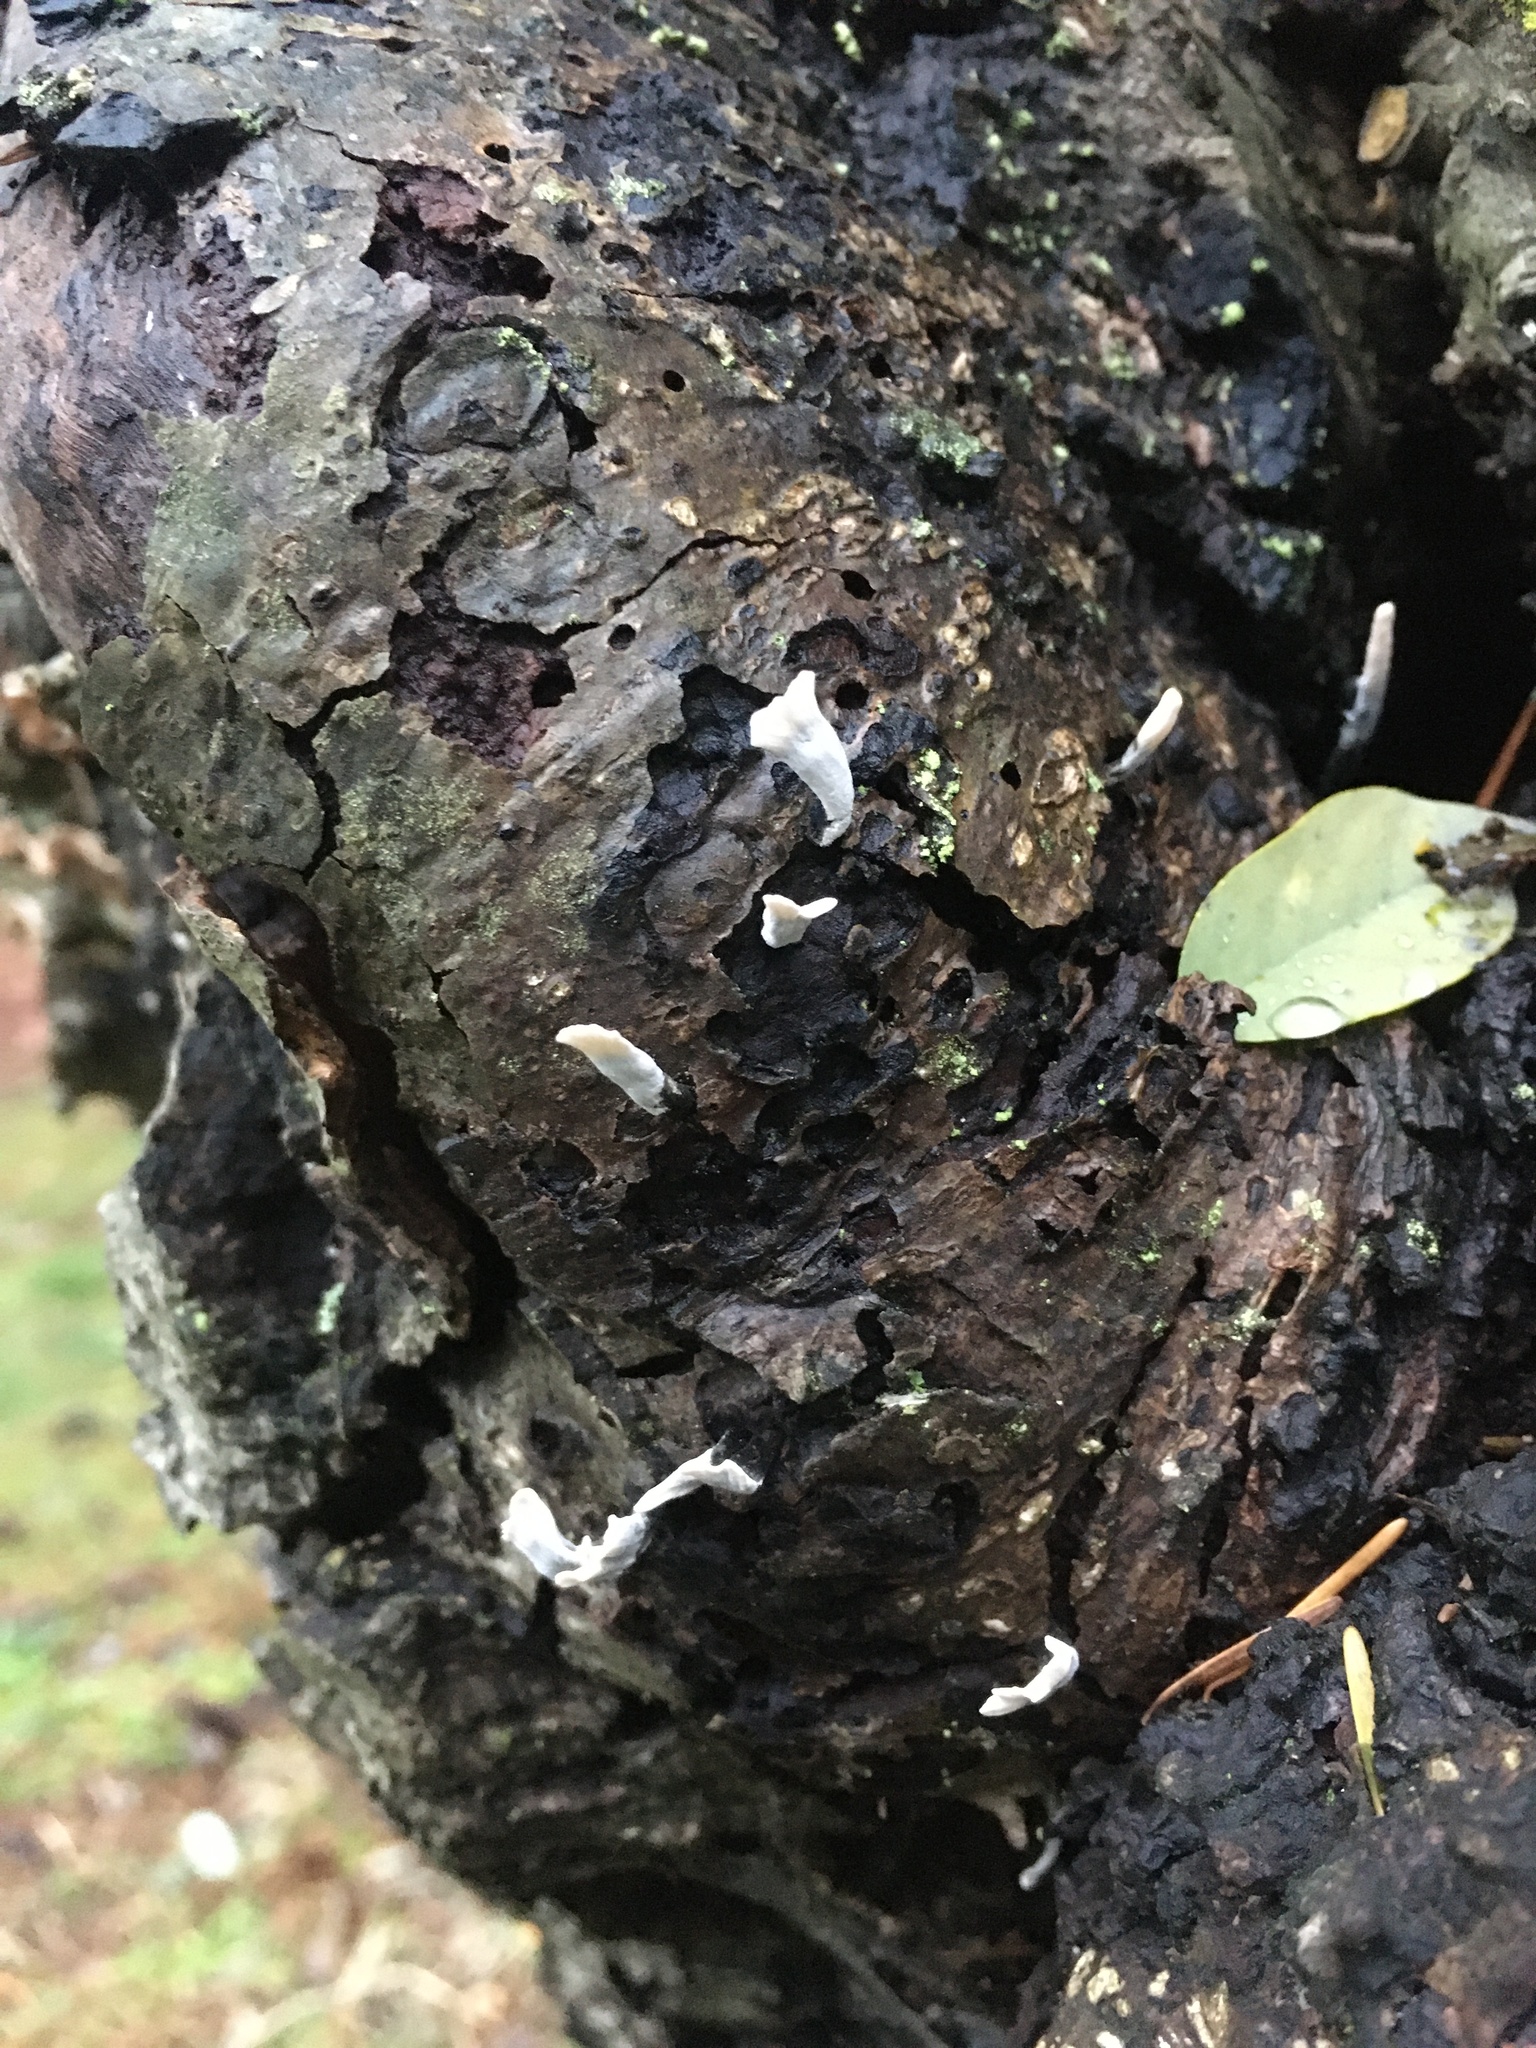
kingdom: Fungi
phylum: Ascomycota
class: Sordariomycetes
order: Xylariales
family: Xylariaceae
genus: Xylaria
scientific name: Xylaria hypoxylon
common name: Candle-snuff fungus
